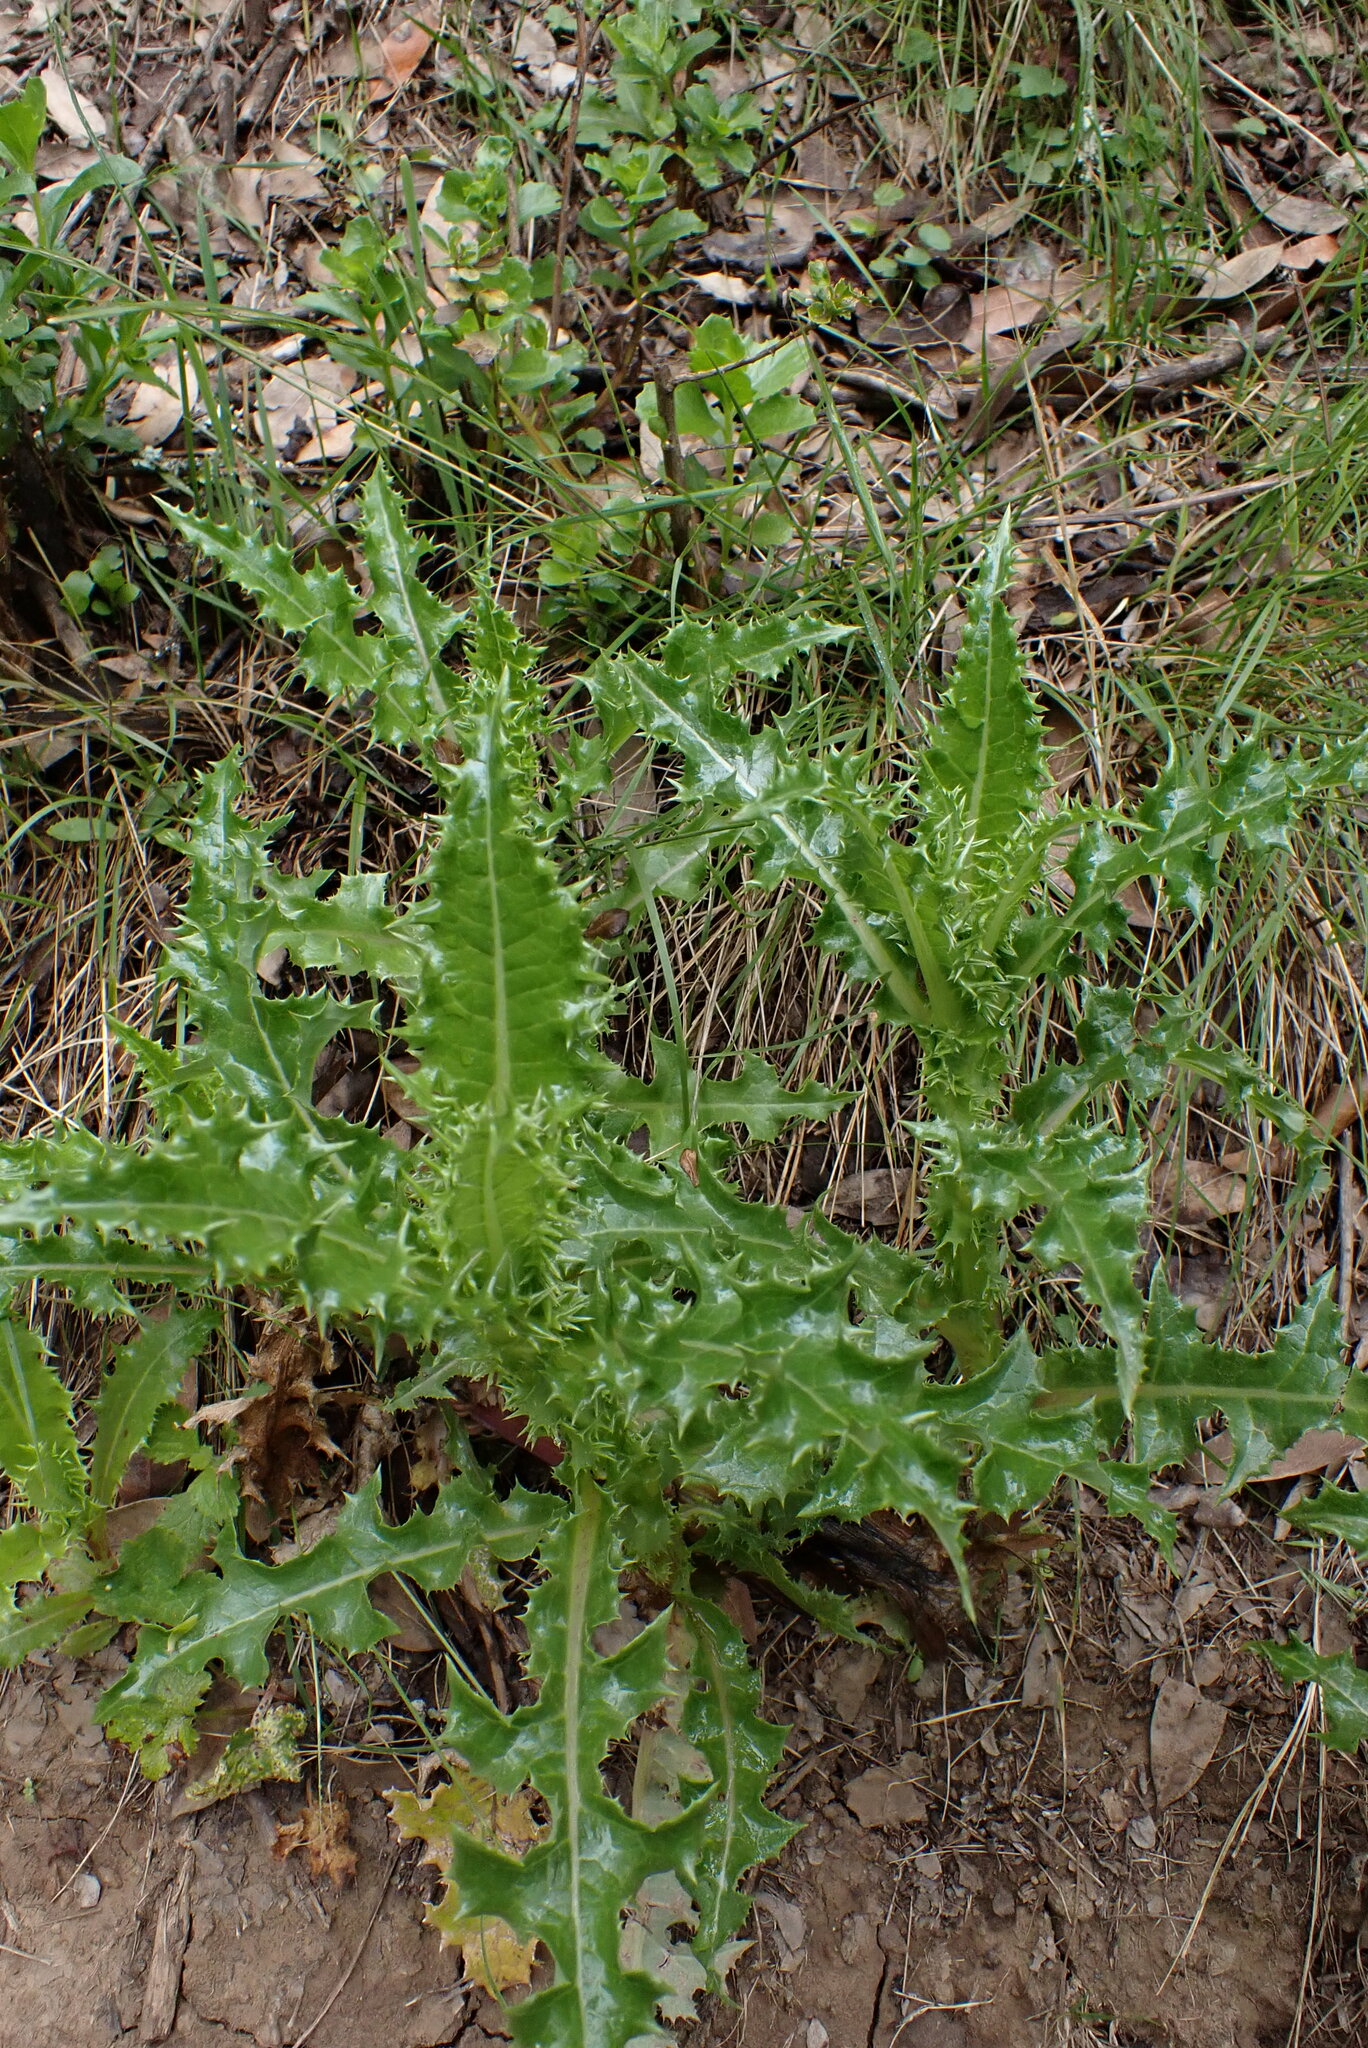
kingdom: Plantae
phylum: Tracheophyta
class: Magnoliopsida
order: Asterales
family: Asteraceae
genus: Sonchus
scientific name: Sonchus asper
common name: Prickly sow-thistle
